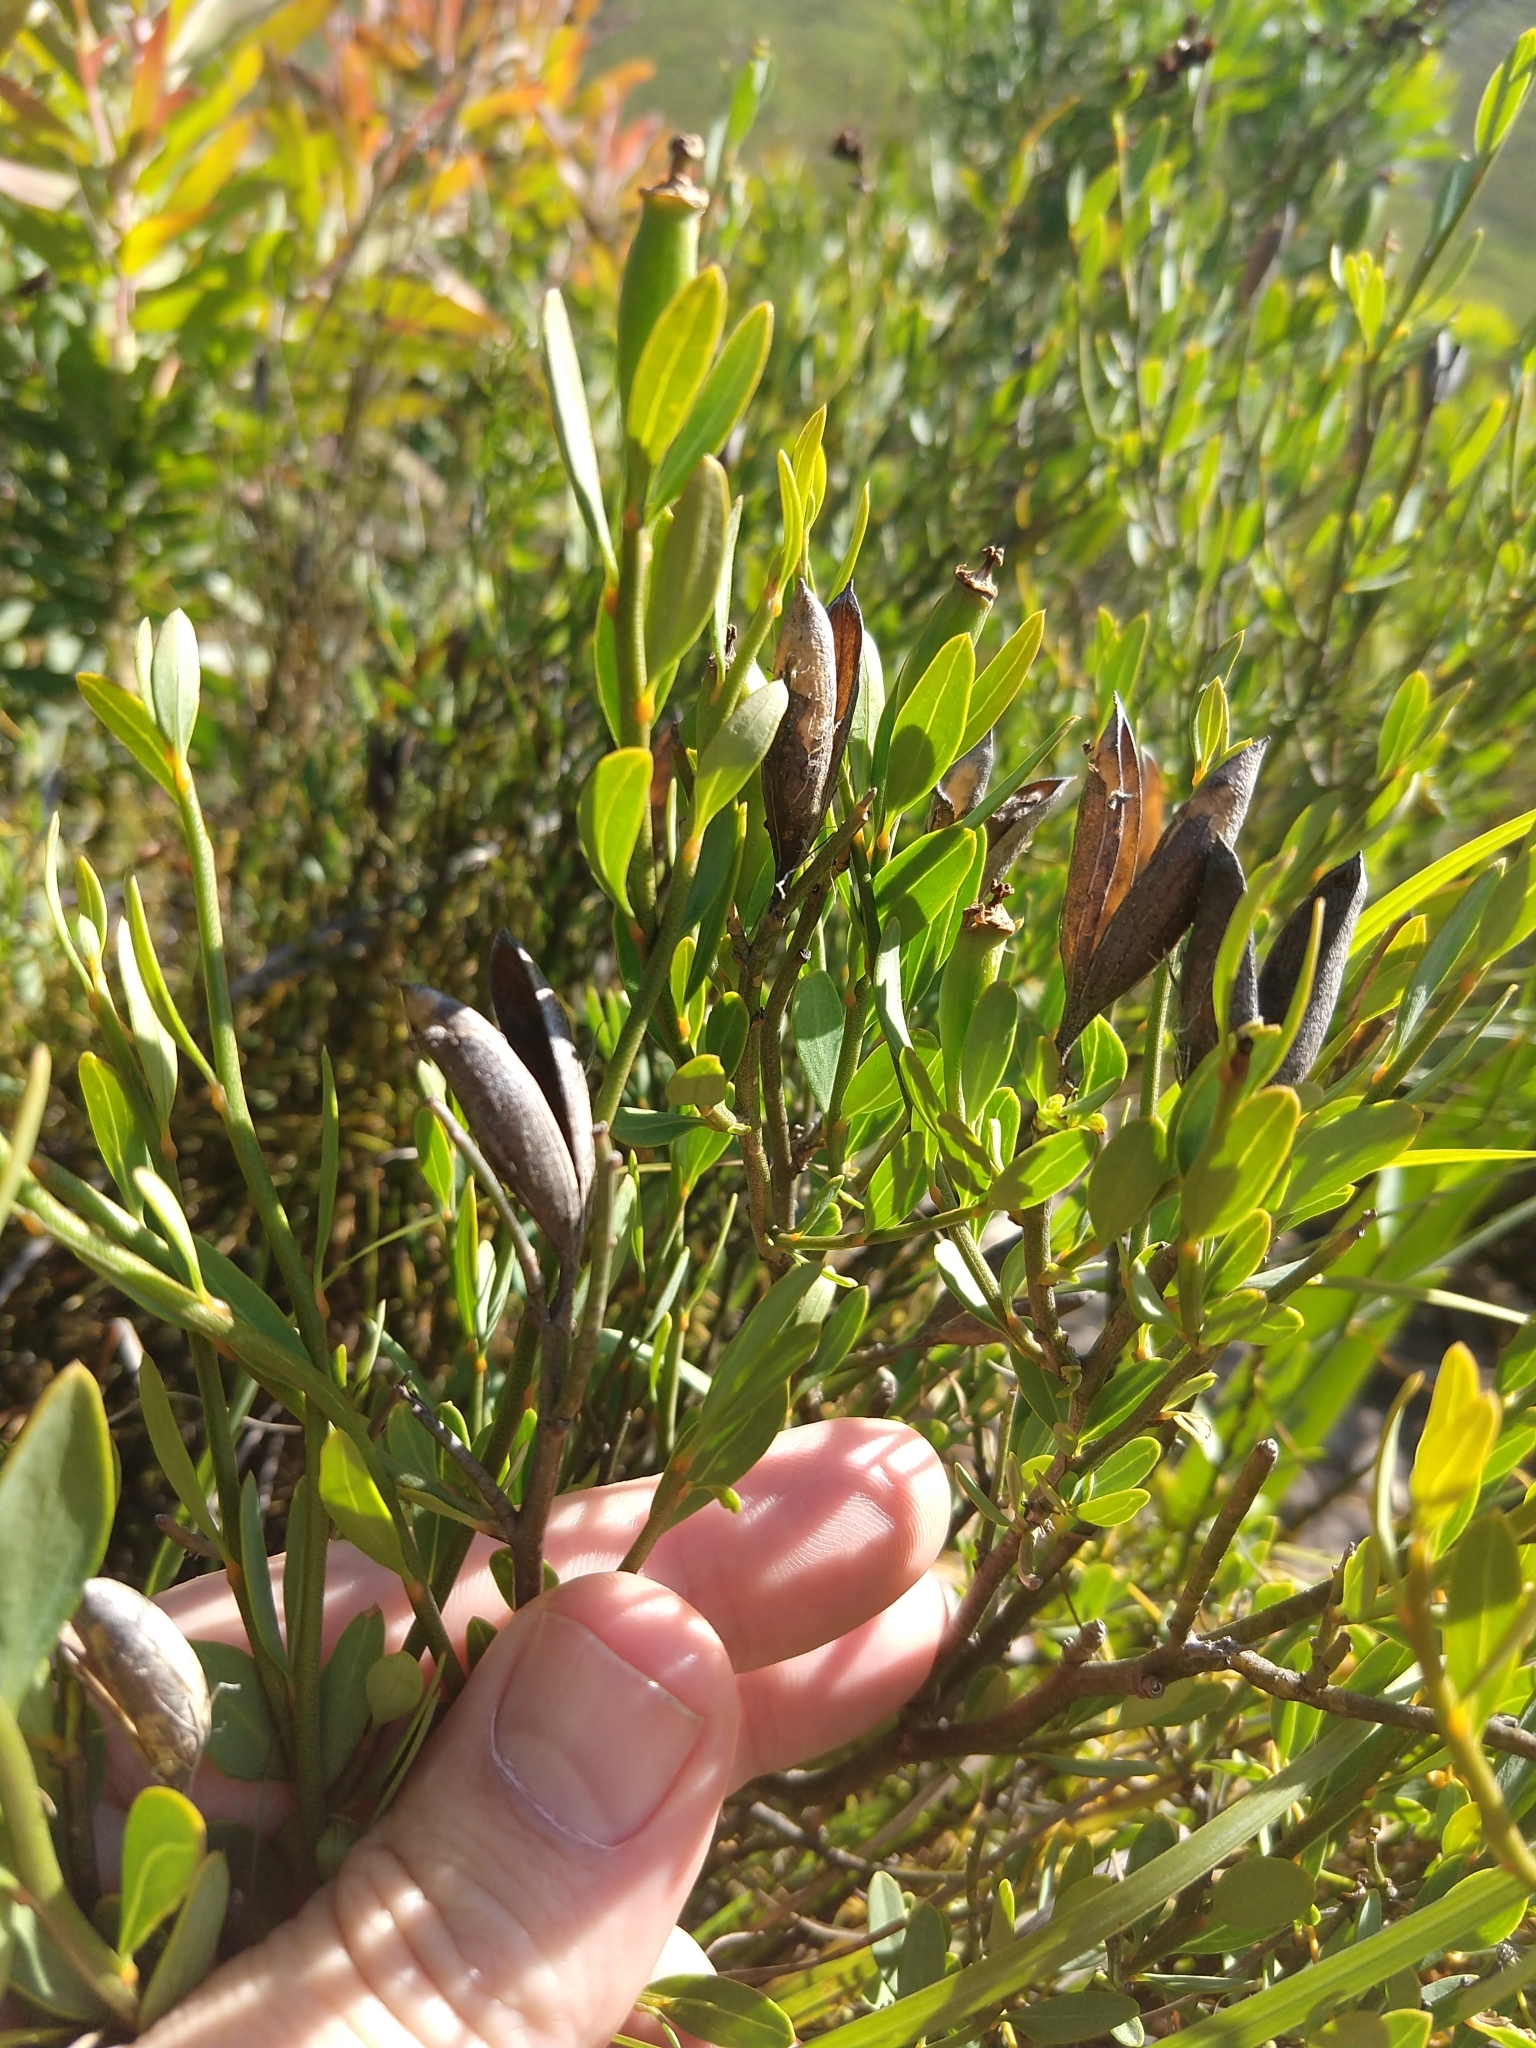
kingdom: Plantae
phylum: Tracheophyta
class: Magnoliopsida
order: Solanales
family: Montiniaceae
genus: Montinia
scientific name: Montinia caryophyllacea
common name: Wild clove-bush
